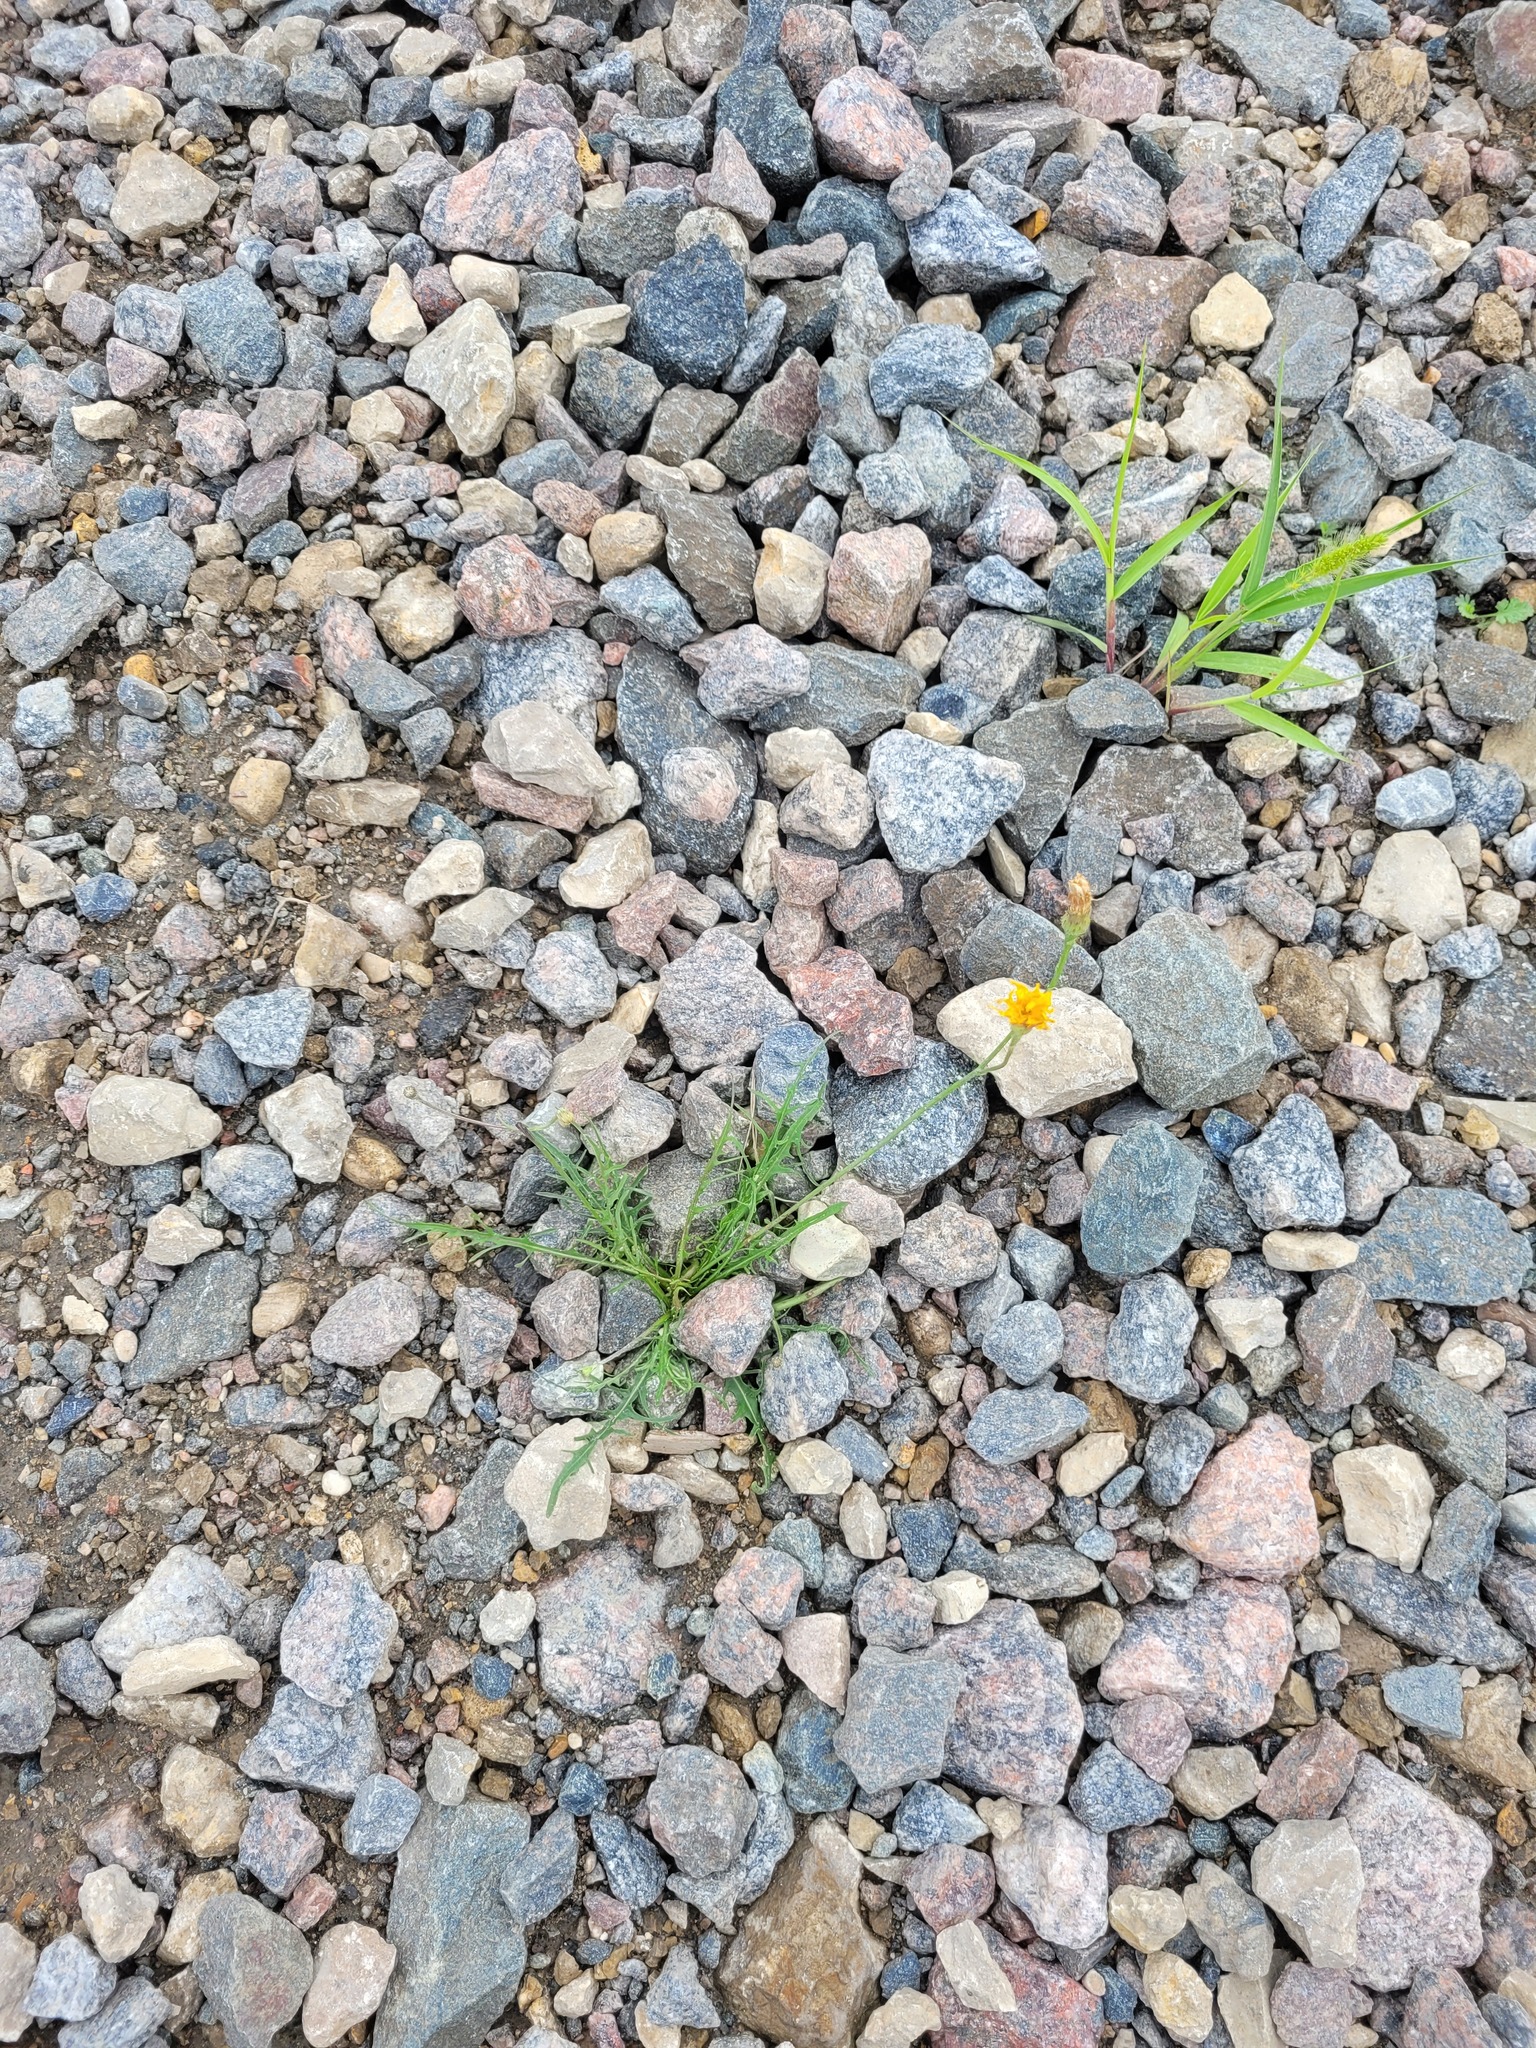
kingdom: Plantae
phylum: Tracheophyta
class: Magnoliopsida
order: Asterales
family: Asteraceae
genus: Scorzoneroides
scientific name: Scorzoneroides autumnalis
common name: Autumn hawkbit
